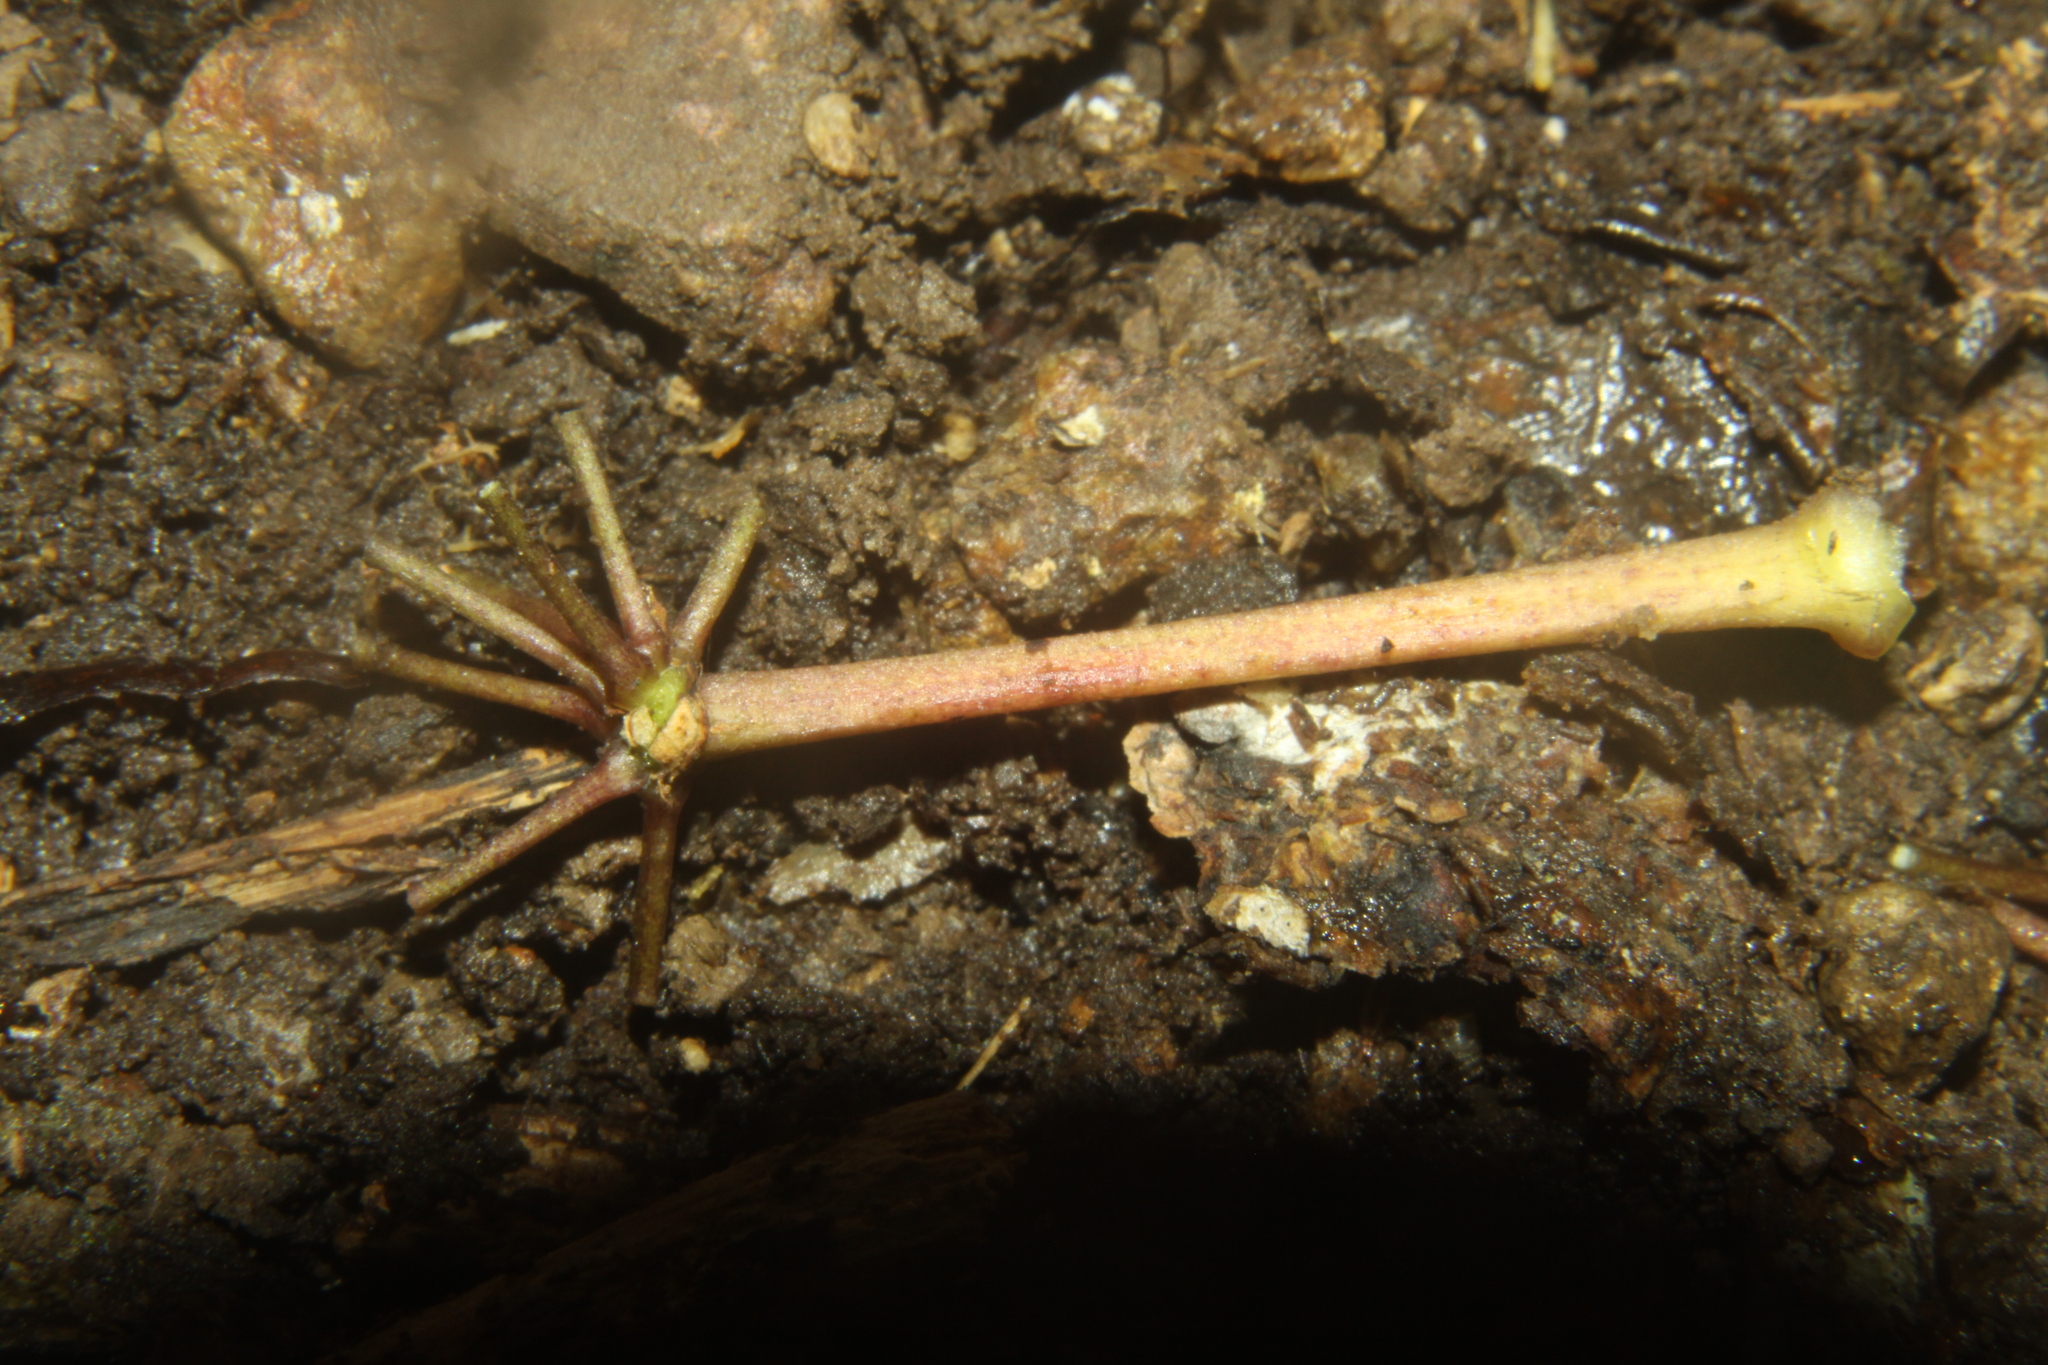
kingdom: Plantae
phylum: Tracheophyta
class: Magnoliopsida
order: Apiales
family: Araliaceae
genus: Neopanax
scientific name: Neopanax arboreus
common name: Five-fingers
